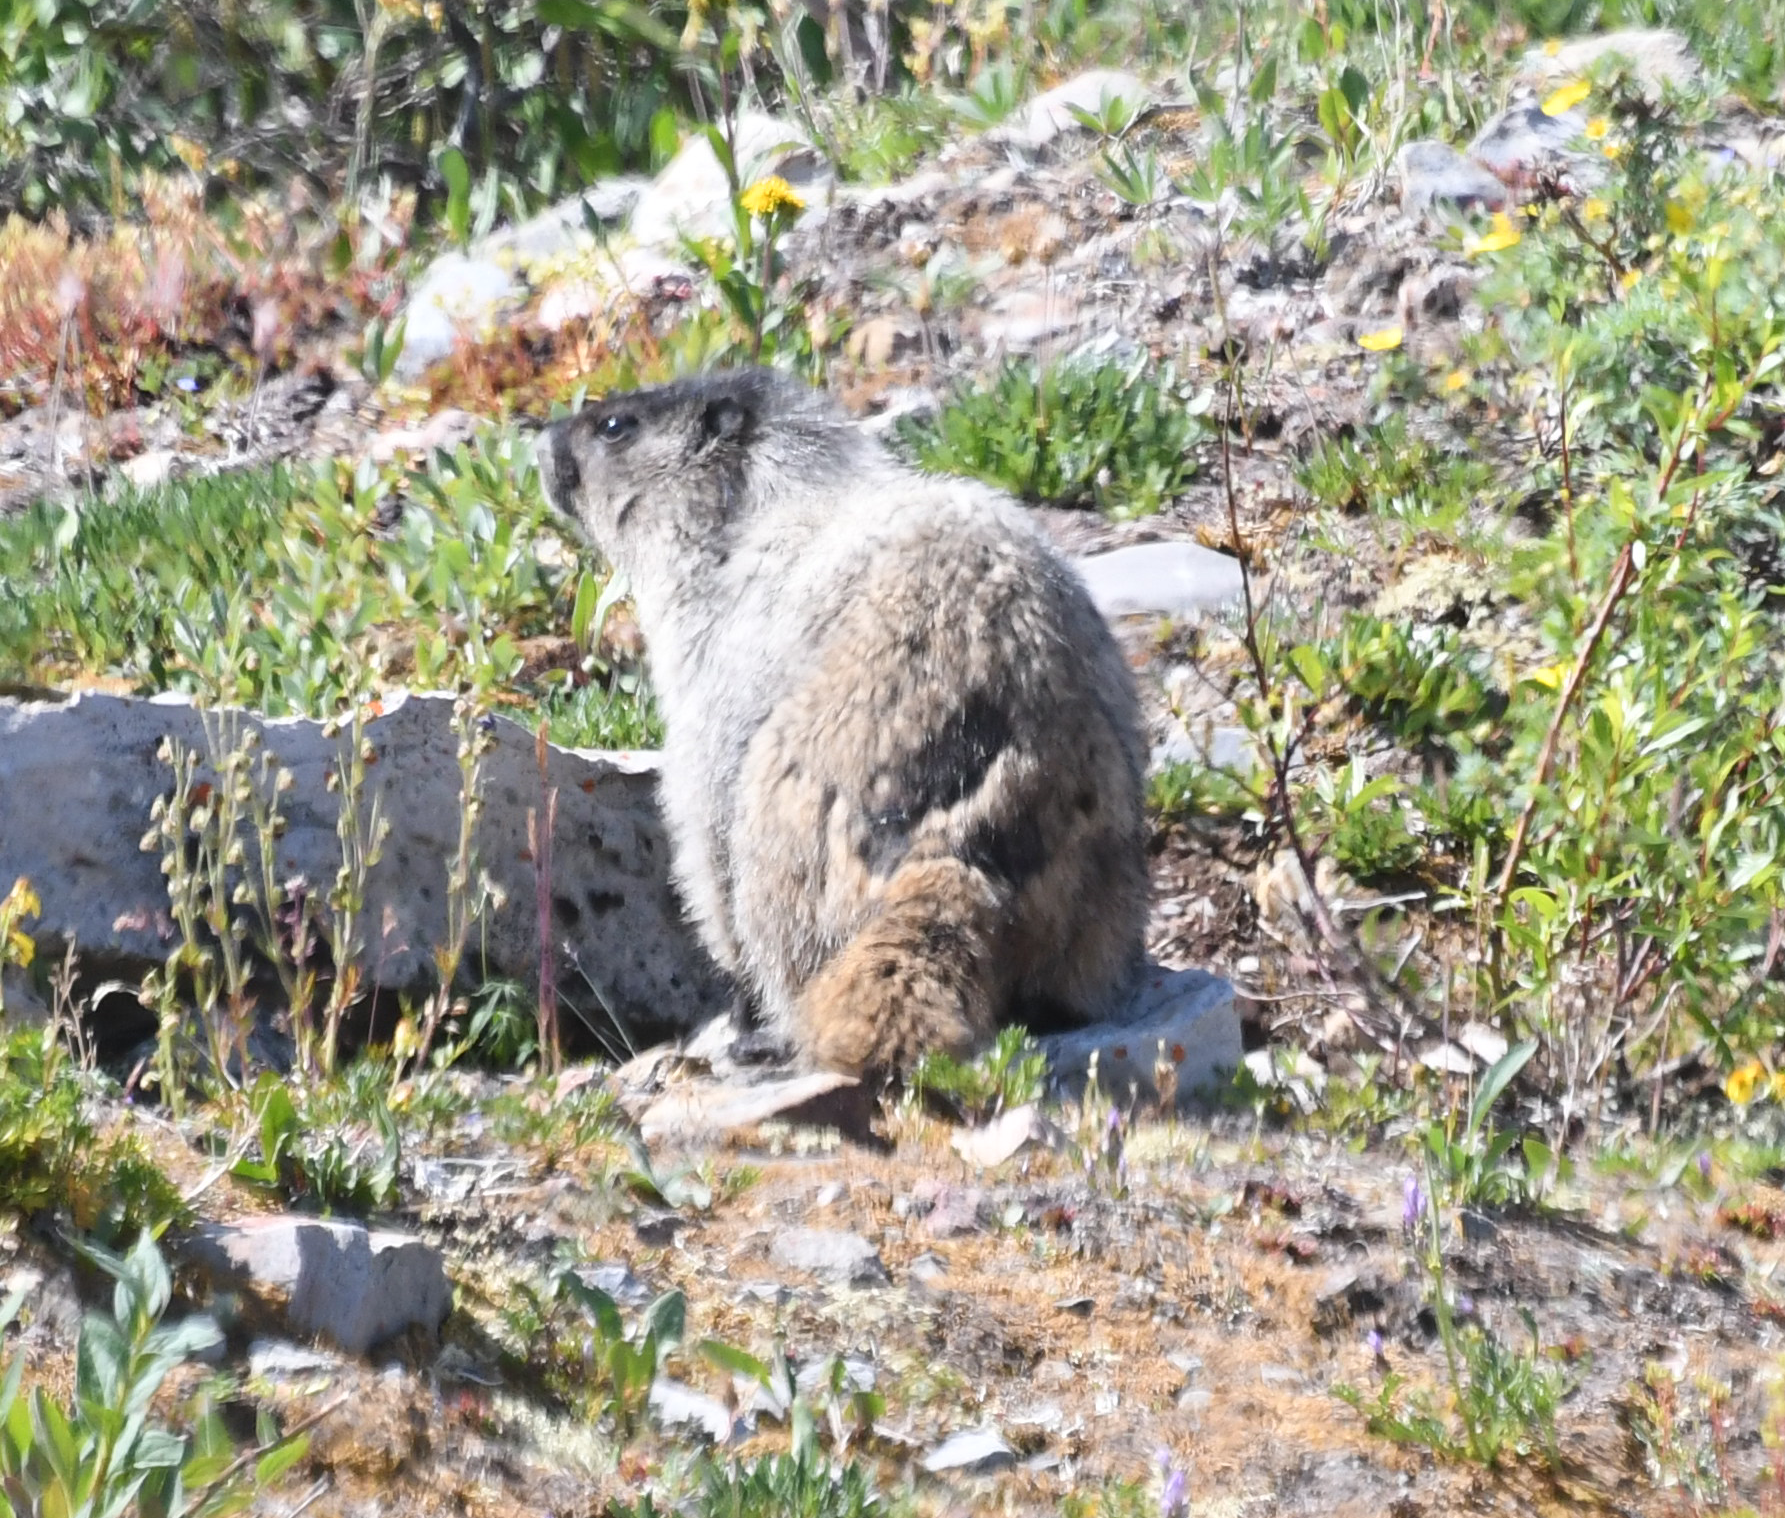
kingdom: Animalia
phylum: Chordata
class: Mammalia
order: Rodentia
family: Sciuridae
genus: Marmota
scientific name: Marmota caligata
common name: Hoary marmot
